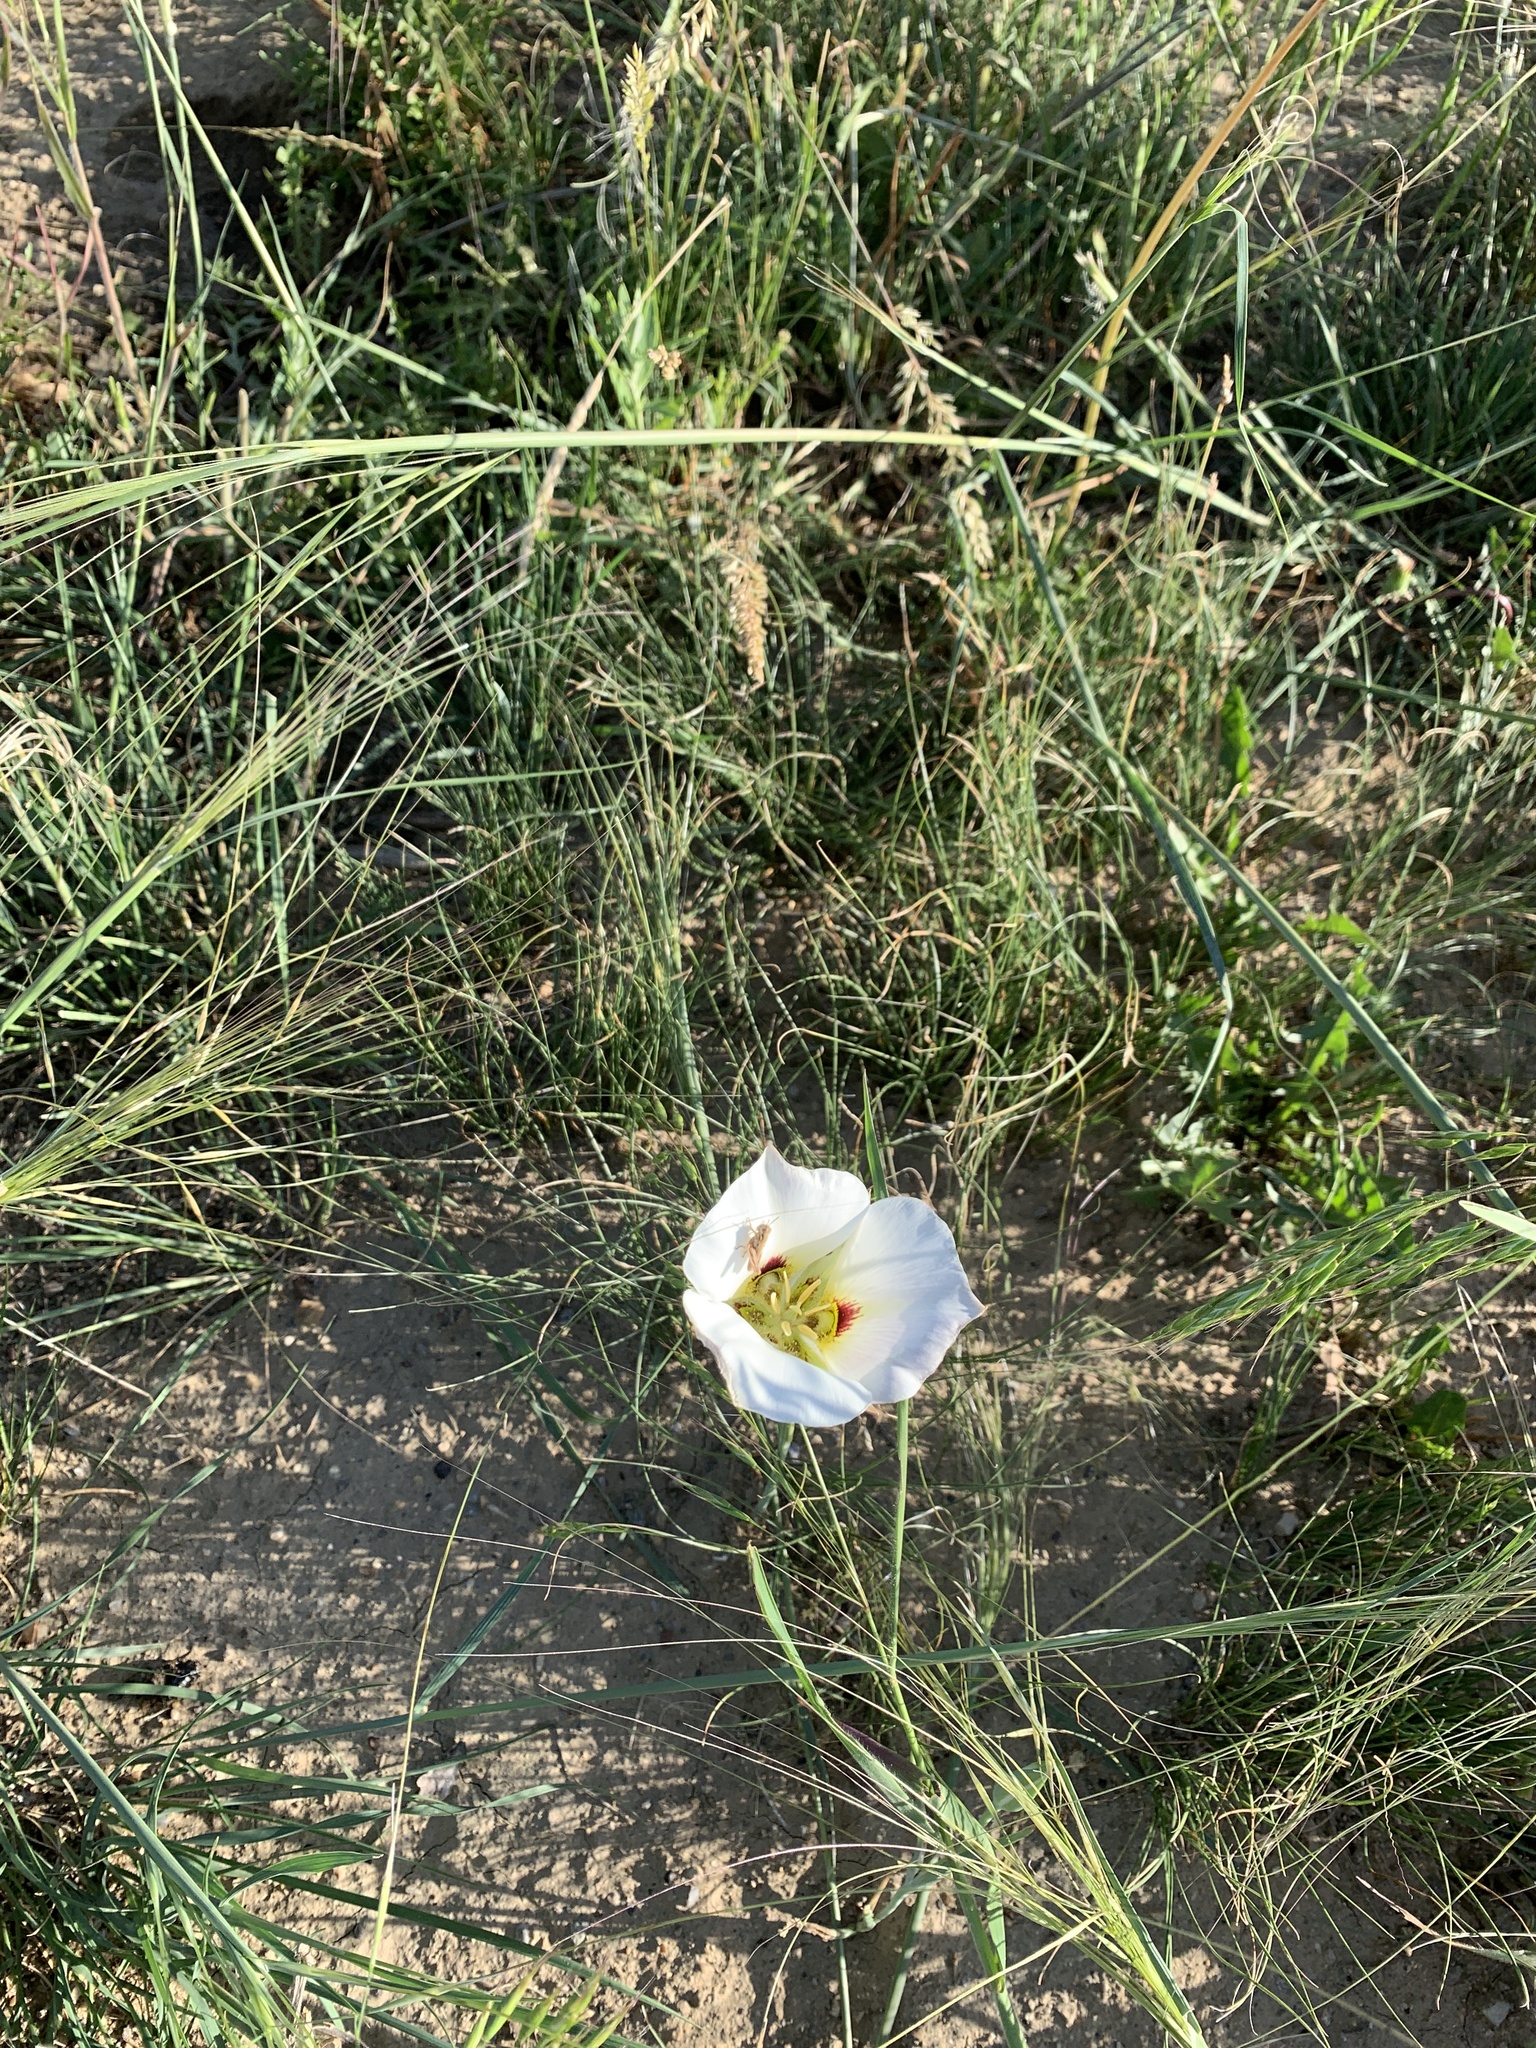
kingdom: Plantae
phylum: Tracheophyta
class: Liliopsida
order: Liliales
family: Liliaceae
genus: Calochortus
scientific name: Calochortus nuttallii
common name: Sego-lily
